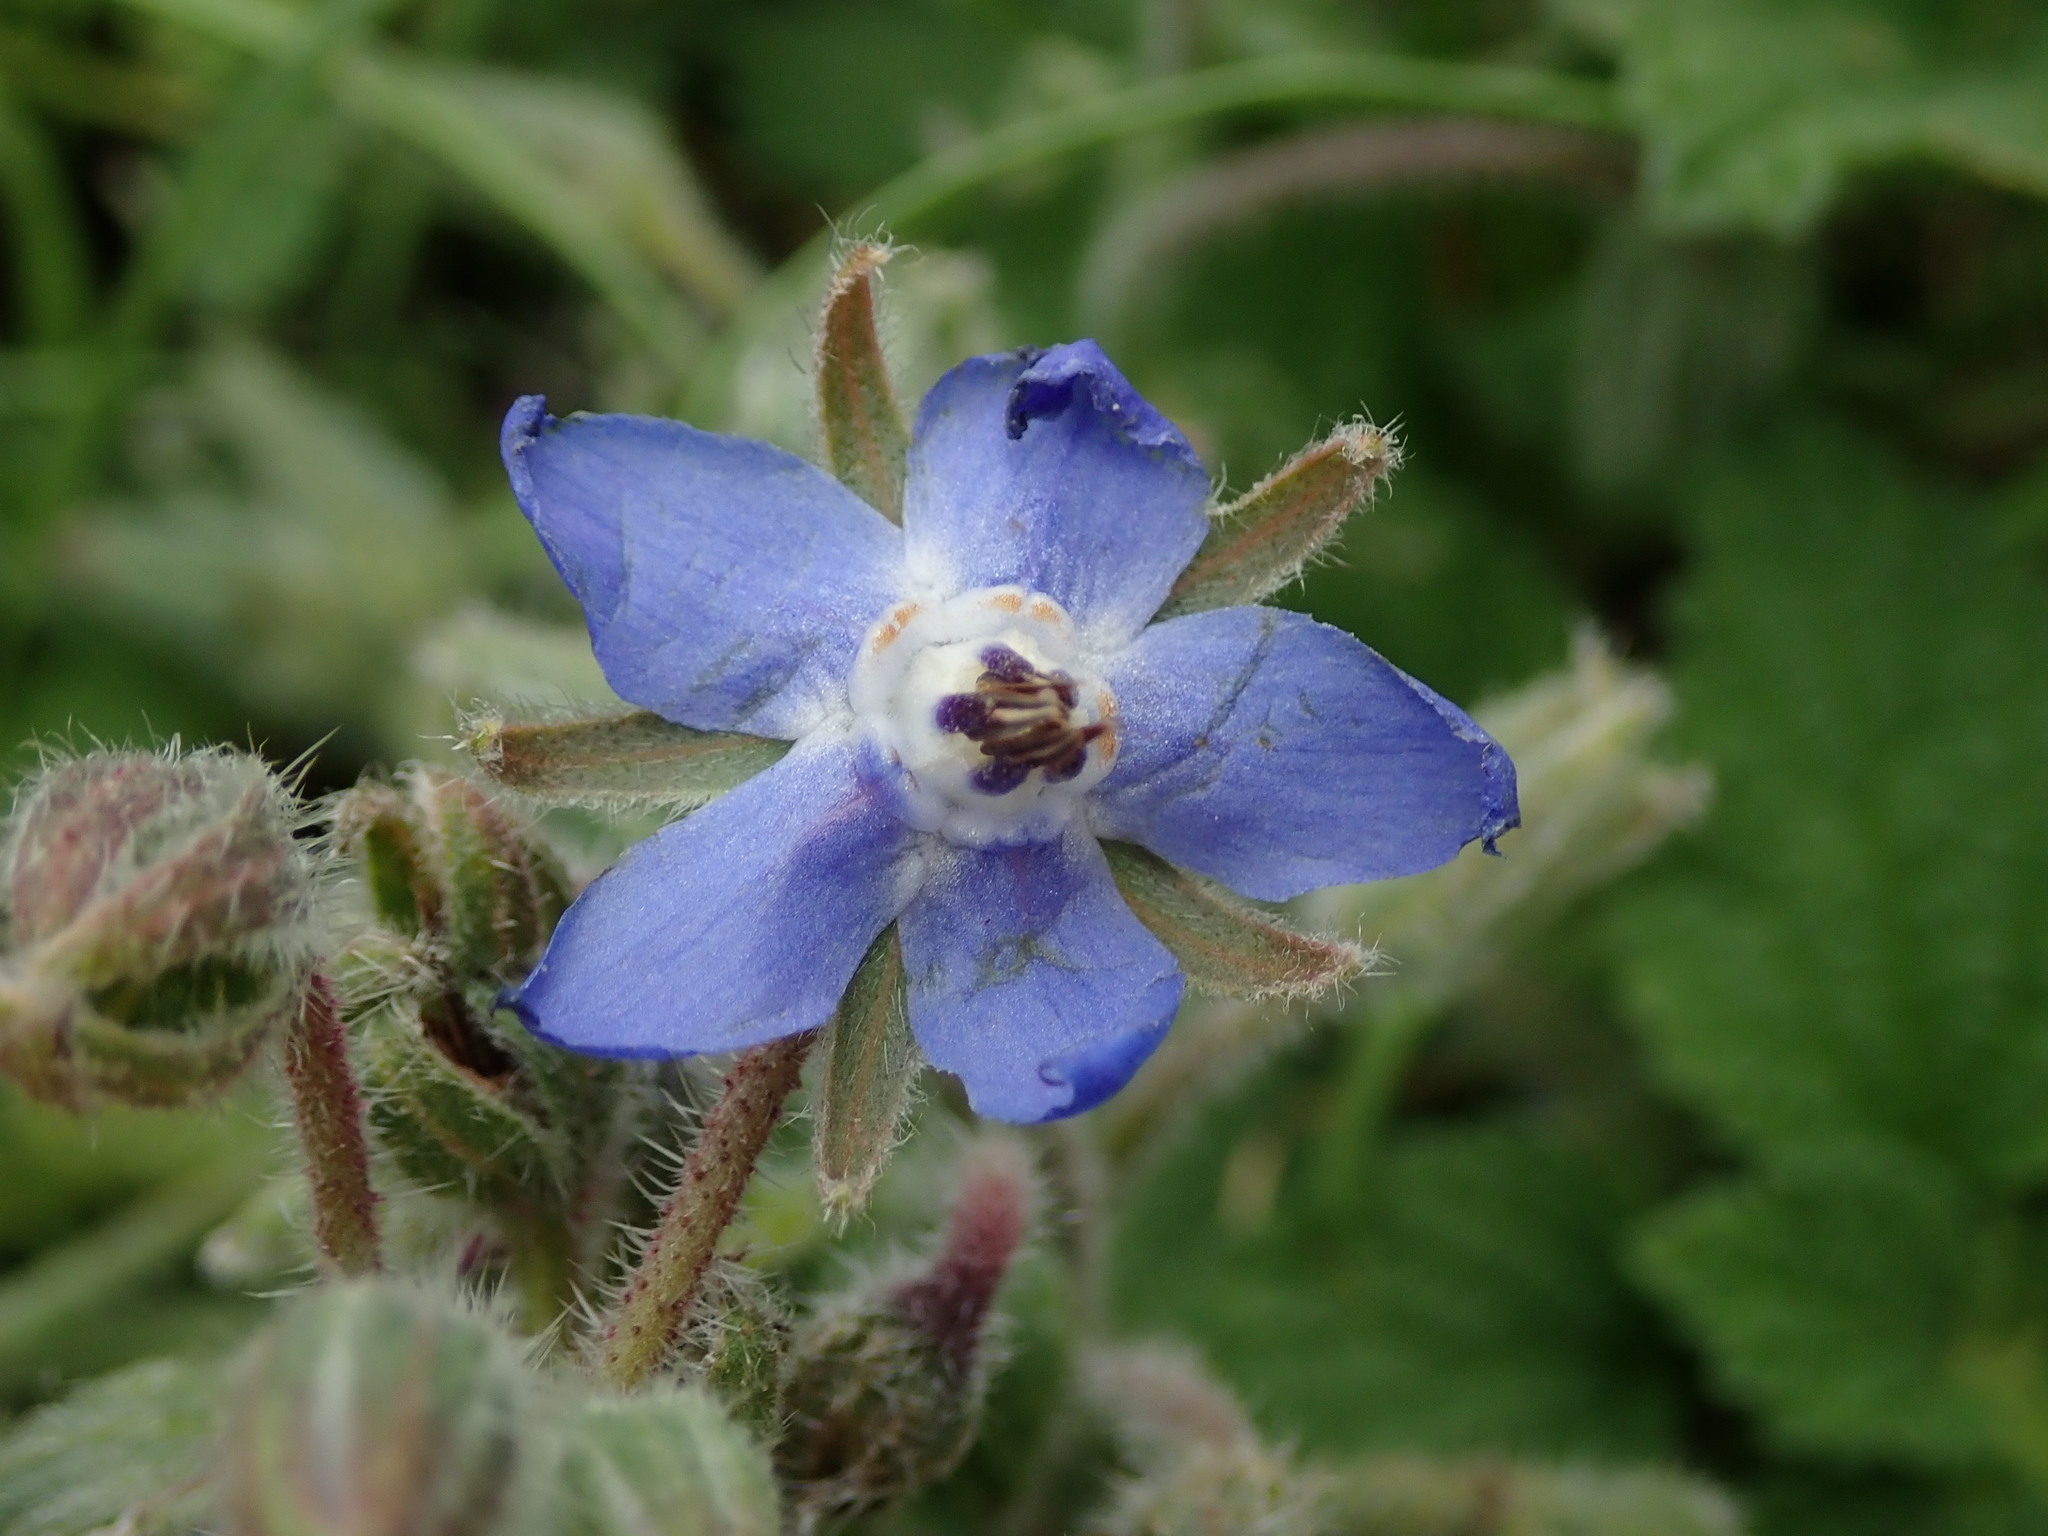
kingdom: Plantae
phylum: Tracheophyta
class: Magnoliopsida
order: Boraginales
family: Boraginaceae
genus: Borago
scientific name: Borago officinalis
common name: Borage
